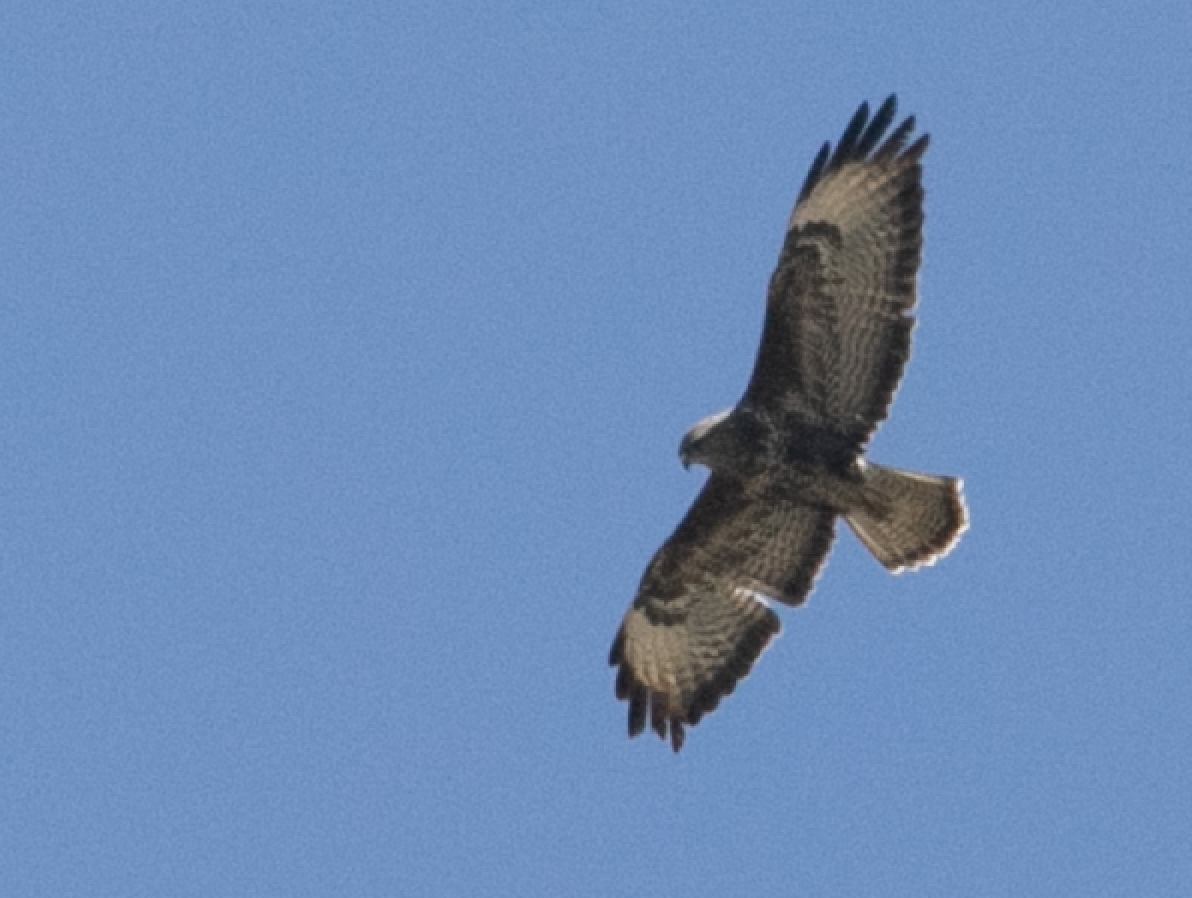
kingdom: Animalia
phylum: Chordata
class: Aves
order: Accipitriformes
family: Accipitridae
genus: Buteo
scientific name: Buteo buteo
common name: Common buzzard
